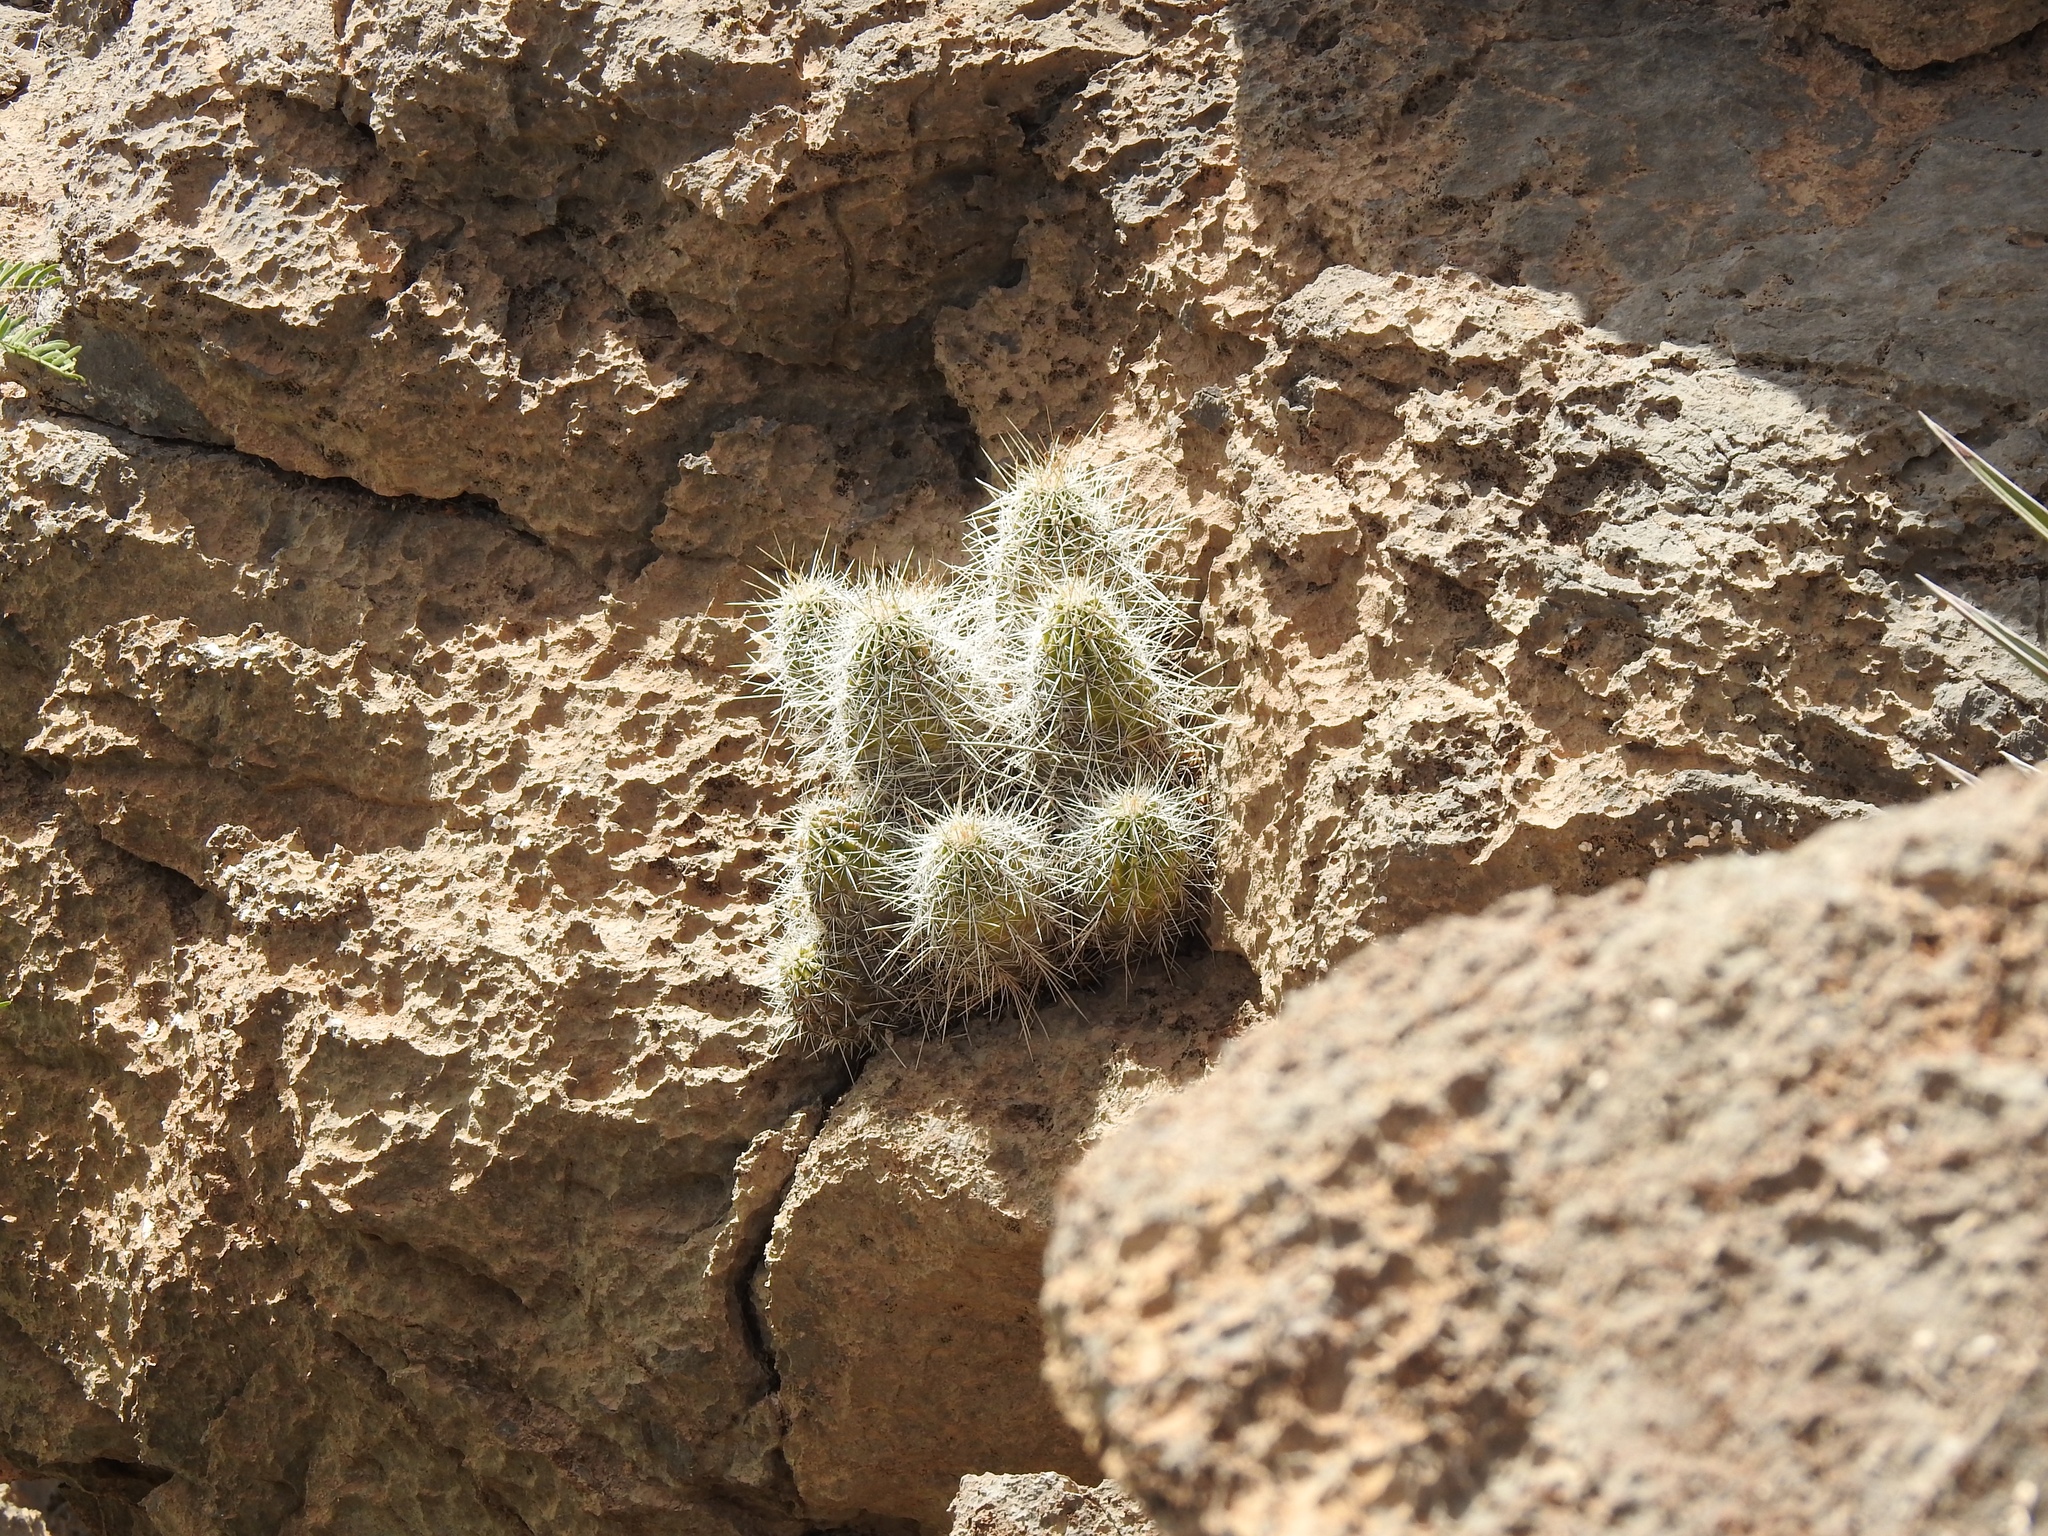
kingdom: Plantae
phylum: Tracheophyta
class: Magnoliopsida
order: Caryophyllales
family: Cactaceae
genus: Echinocereus
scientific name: Echinocereus stramineus
